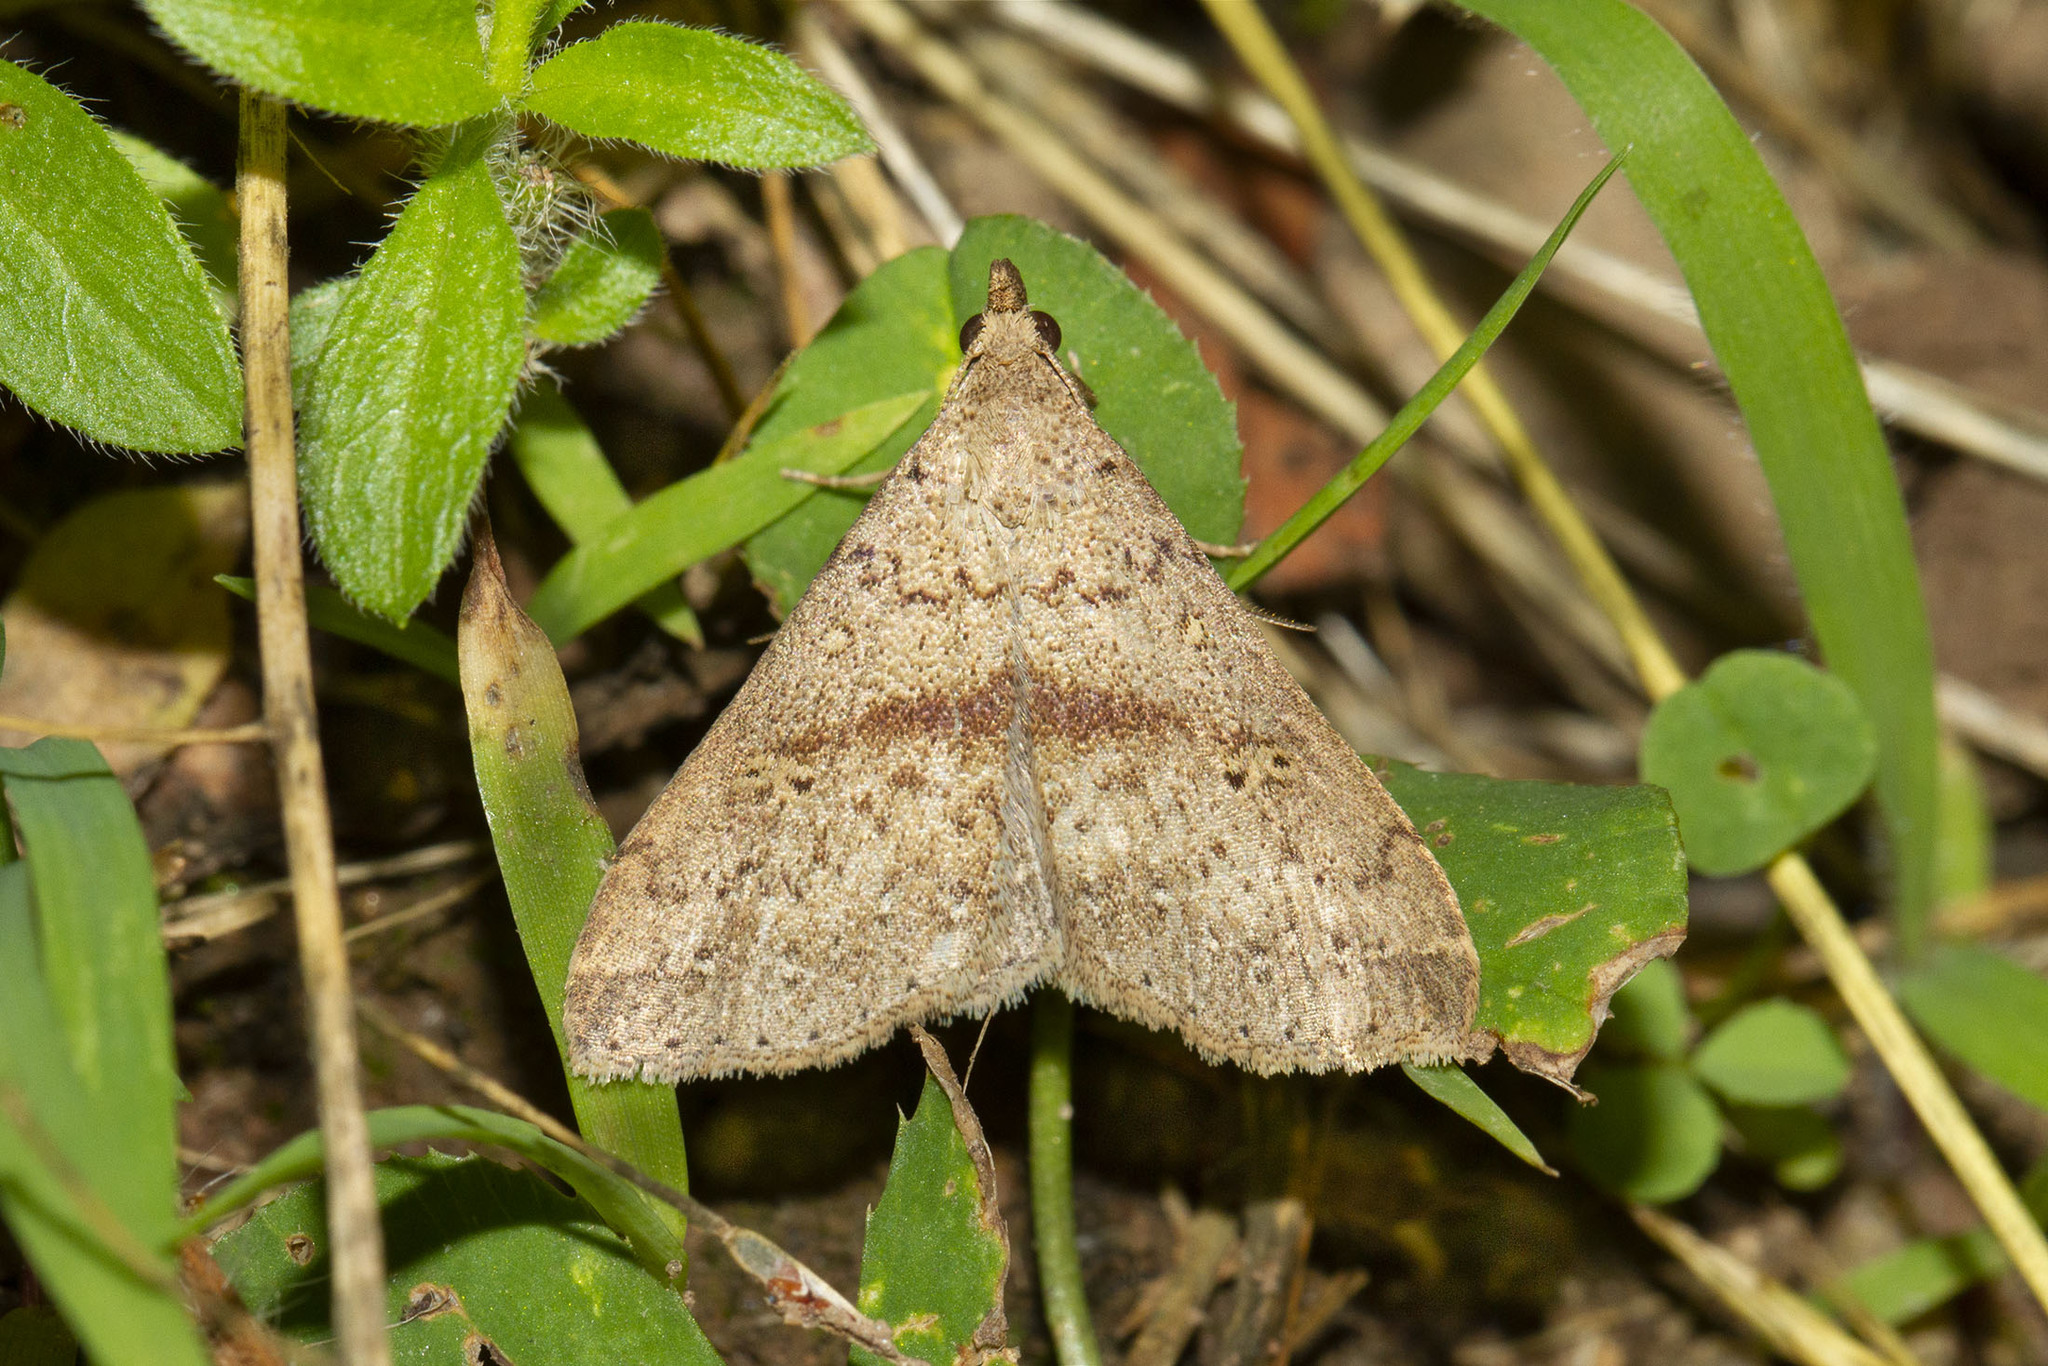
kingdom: Animalia
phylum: Arthropoda
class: Insecta
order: Lepidoptera
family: Erebidae
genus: Renia
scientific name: Renia salusalis
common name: Dotted renia moth
